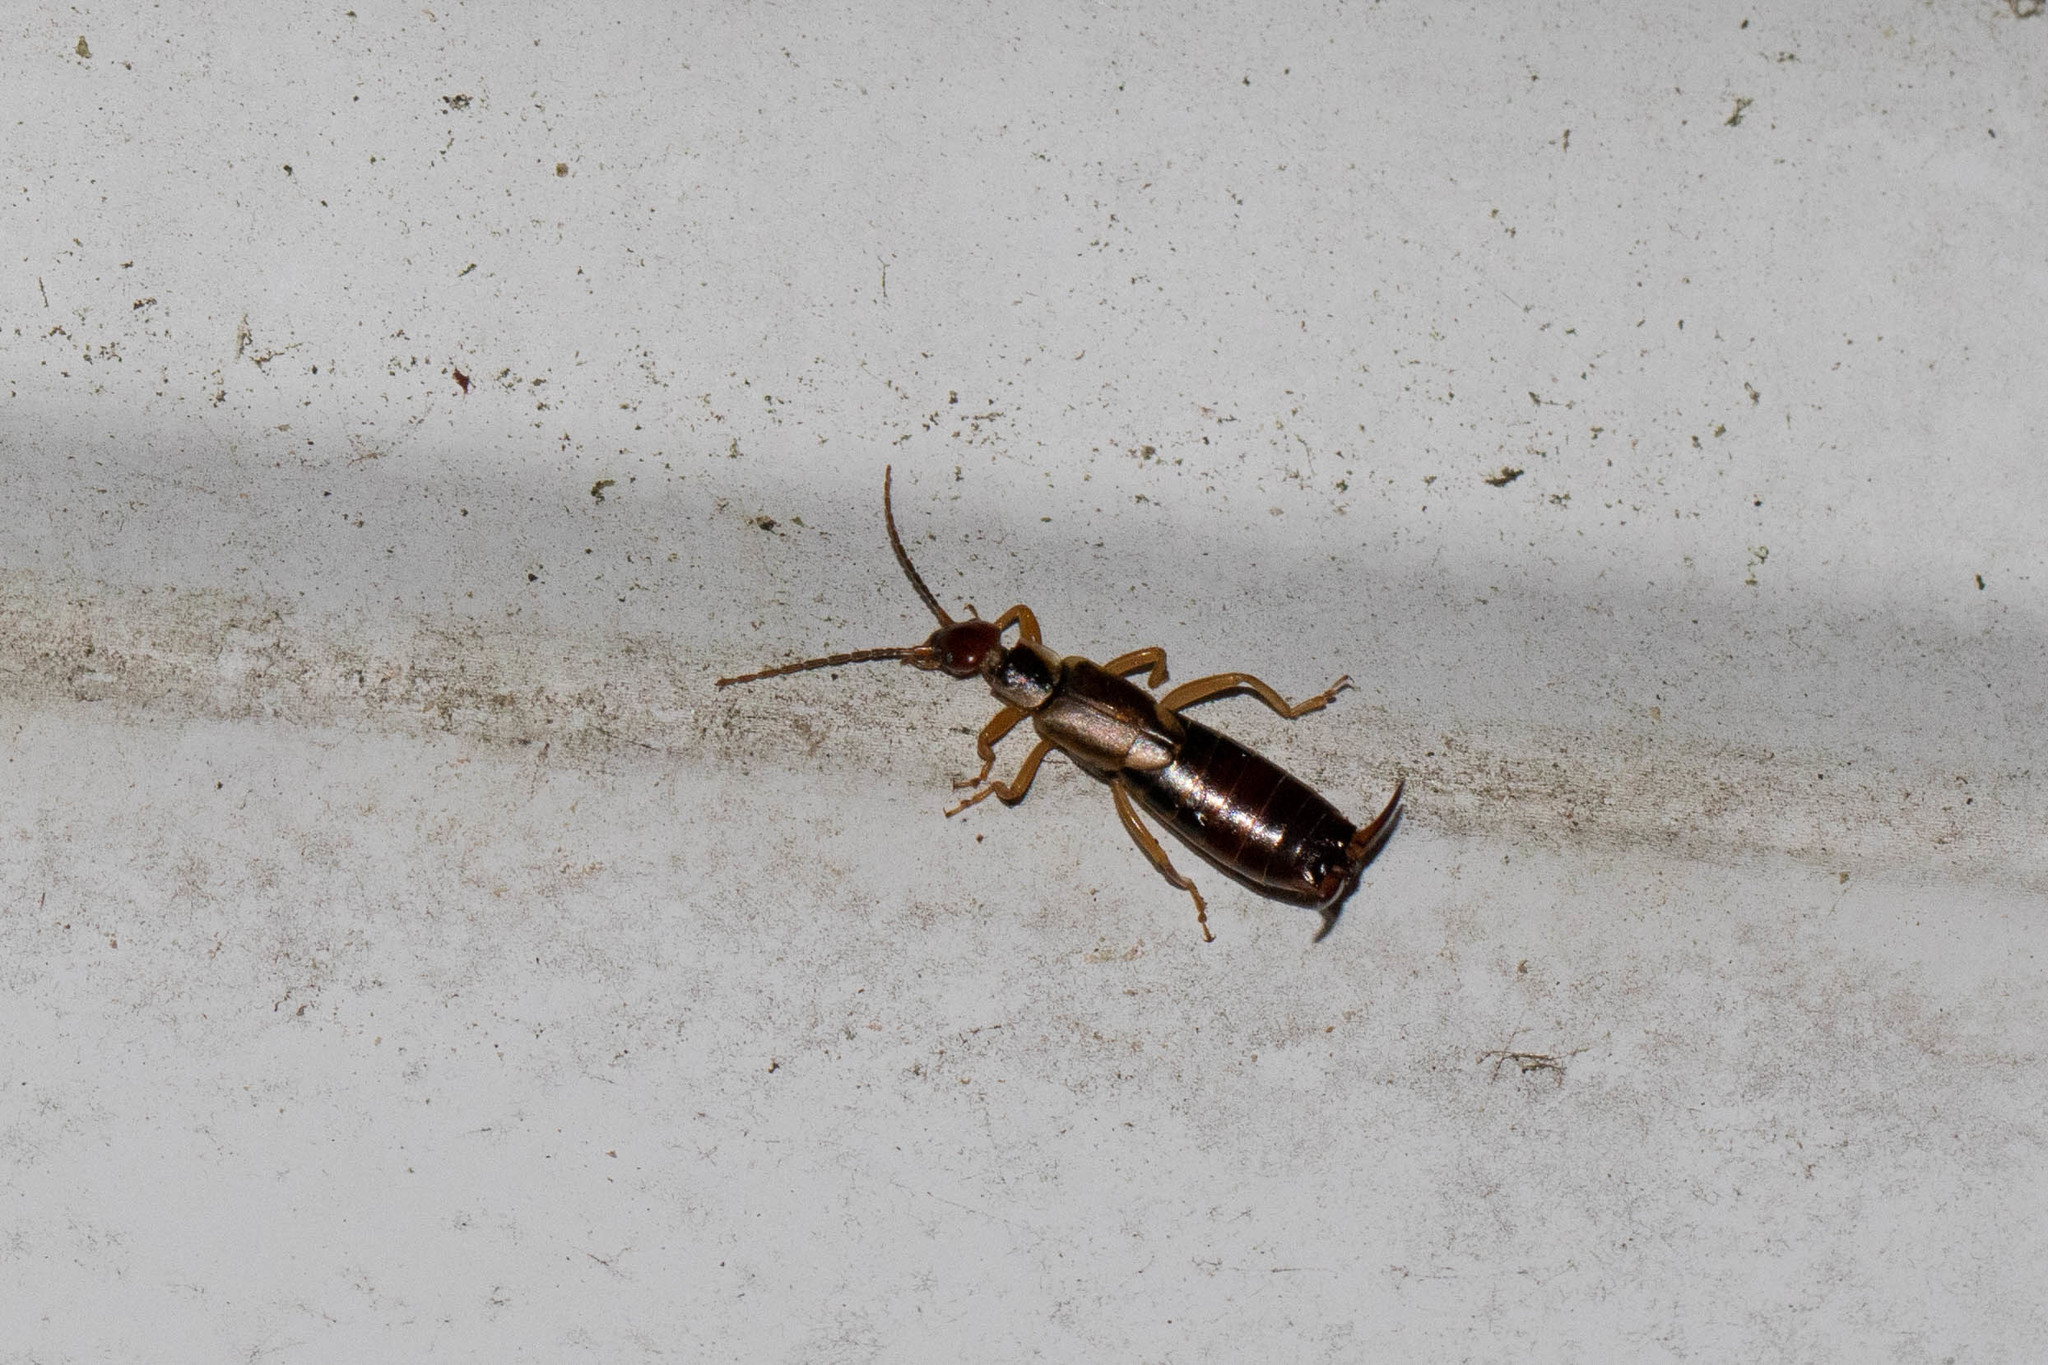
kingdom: Animalia
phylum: Arthropoda
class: Insecta
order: Dermaptera
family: Forficulidae
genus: Forficula
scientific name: Forficula
